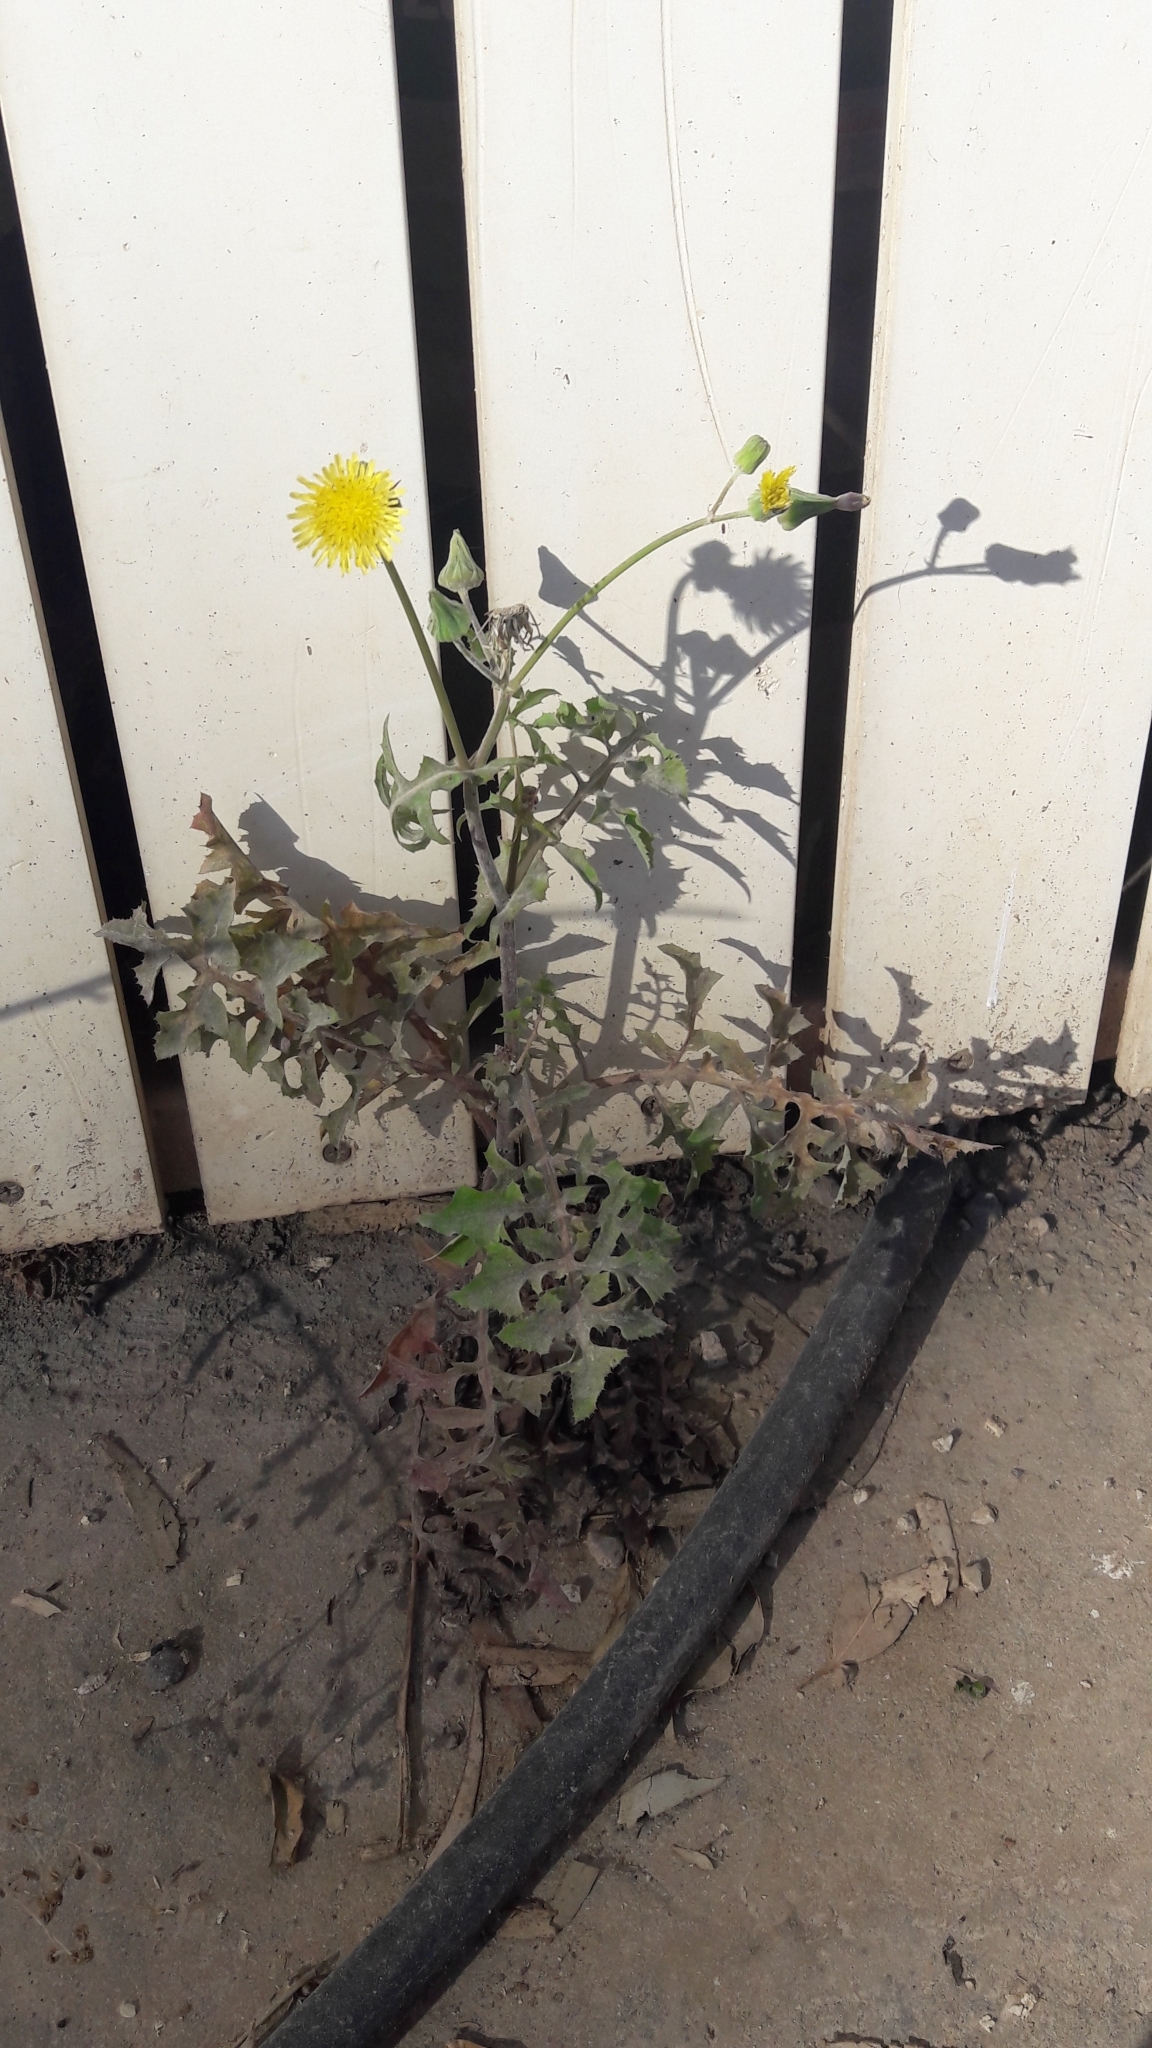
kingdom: Plantae
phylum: Tracheophyta
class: Magnoliopsida
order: Asterales
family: Asteraceae
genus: Sonchus
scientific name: Sonchus oleraceus
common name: Common sowthistle
